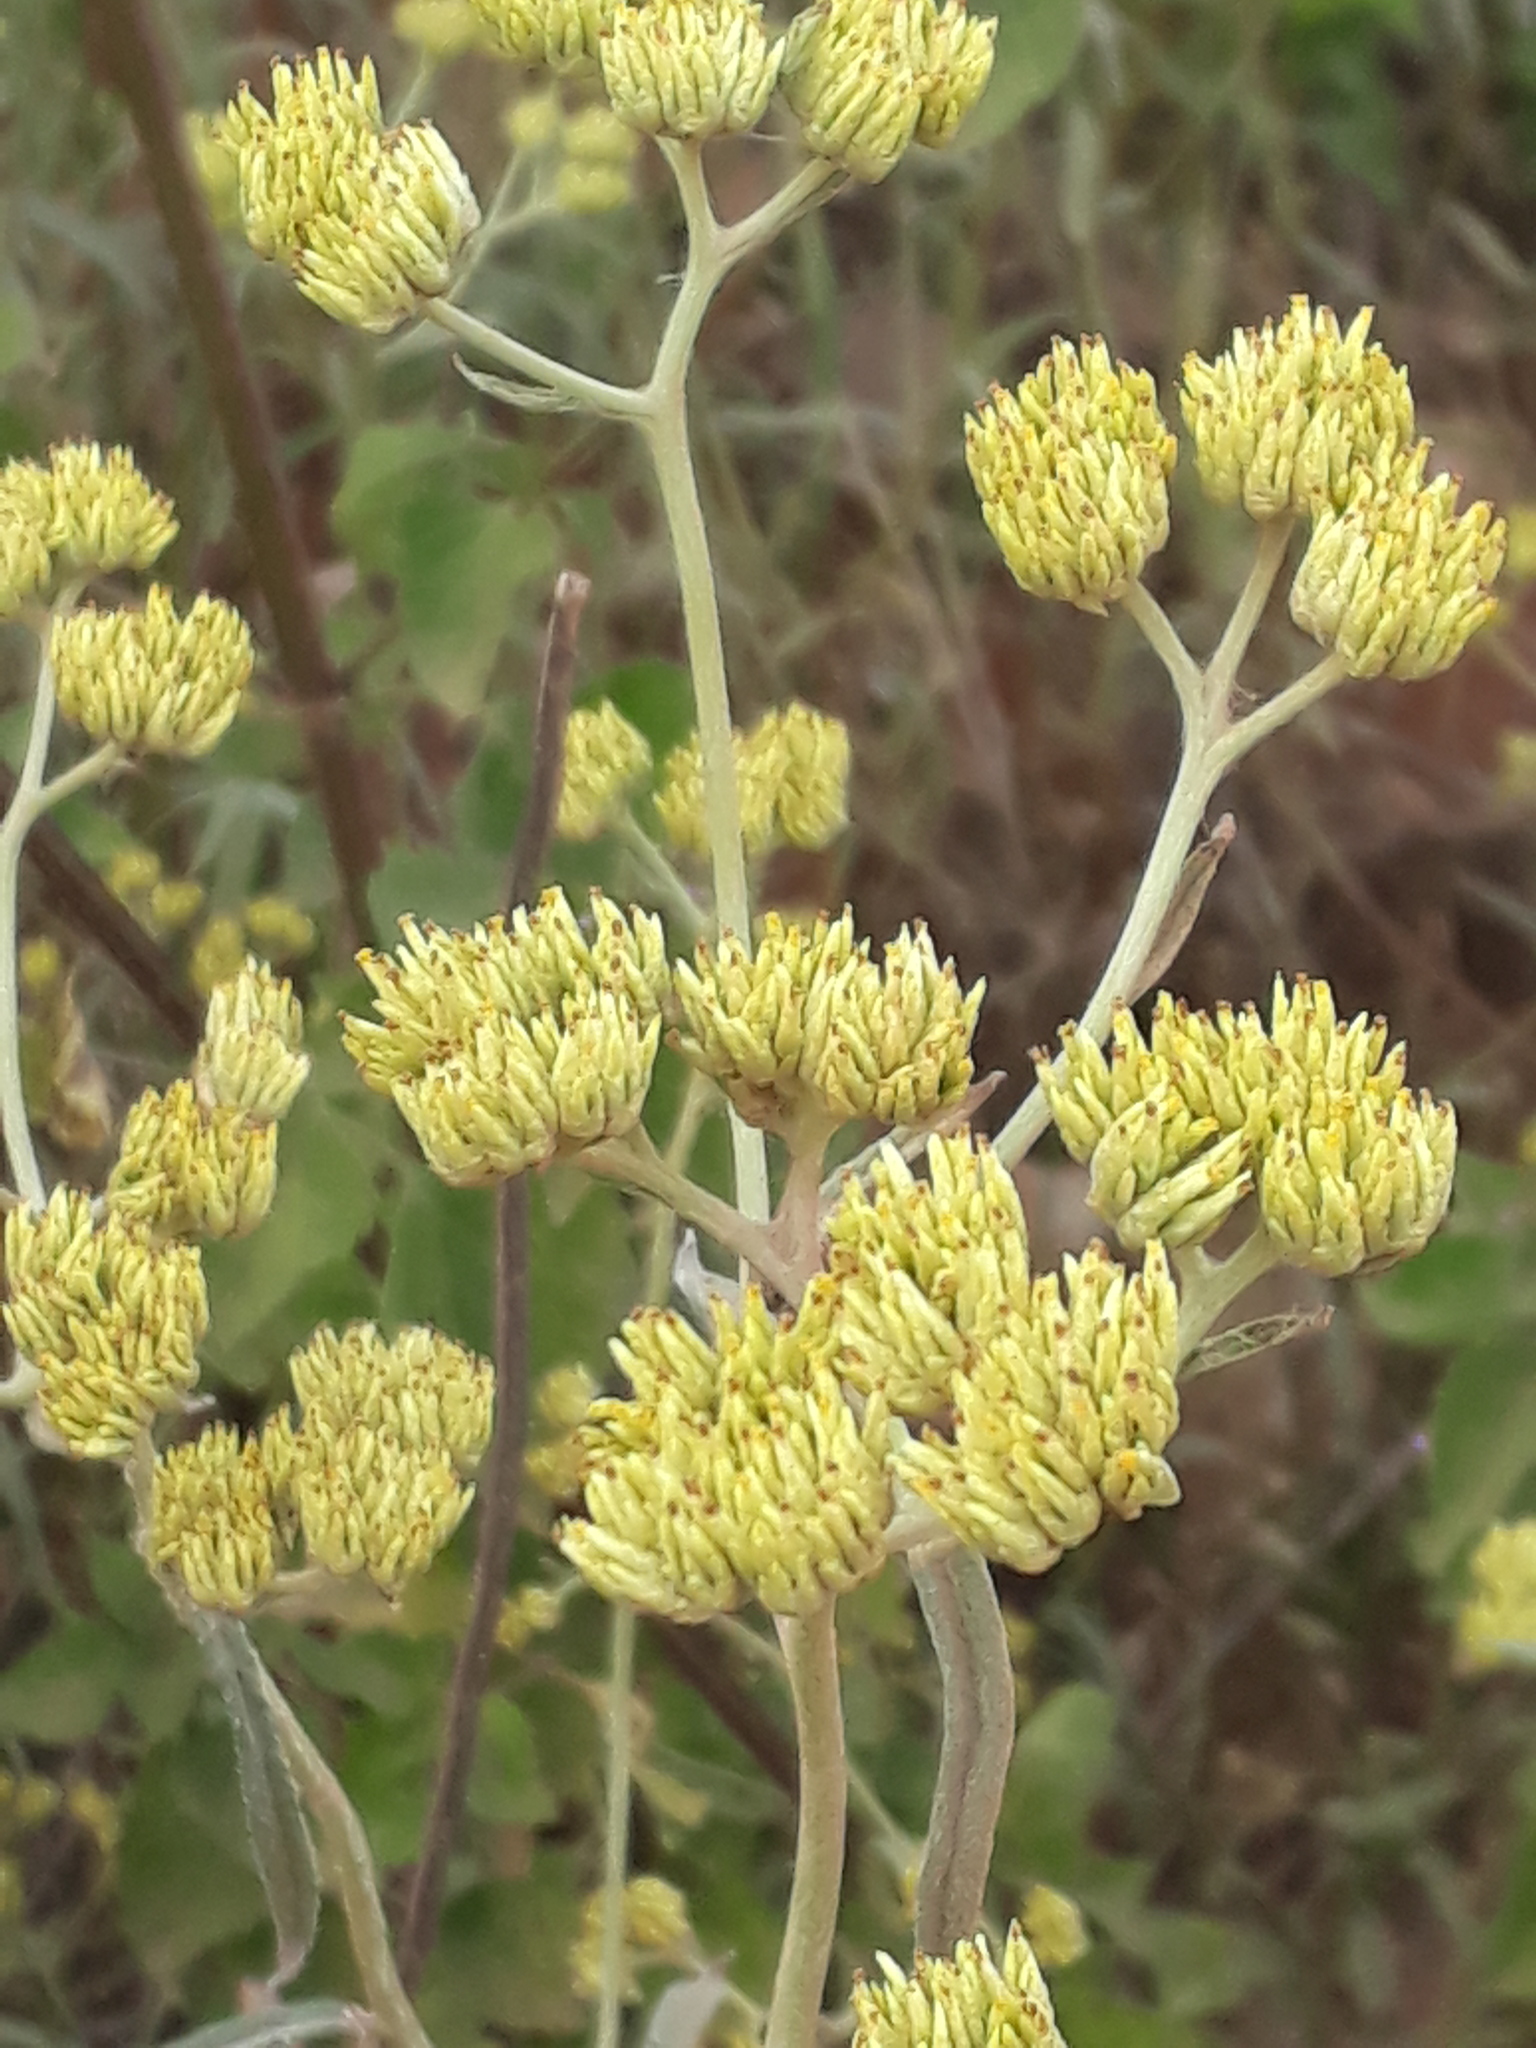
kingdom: Plantae
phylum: Tracheophyta
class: Magnoliopsida
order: Asterales
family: Asteraceae
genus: Achyrocline
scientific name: Achyrocline satureioides
